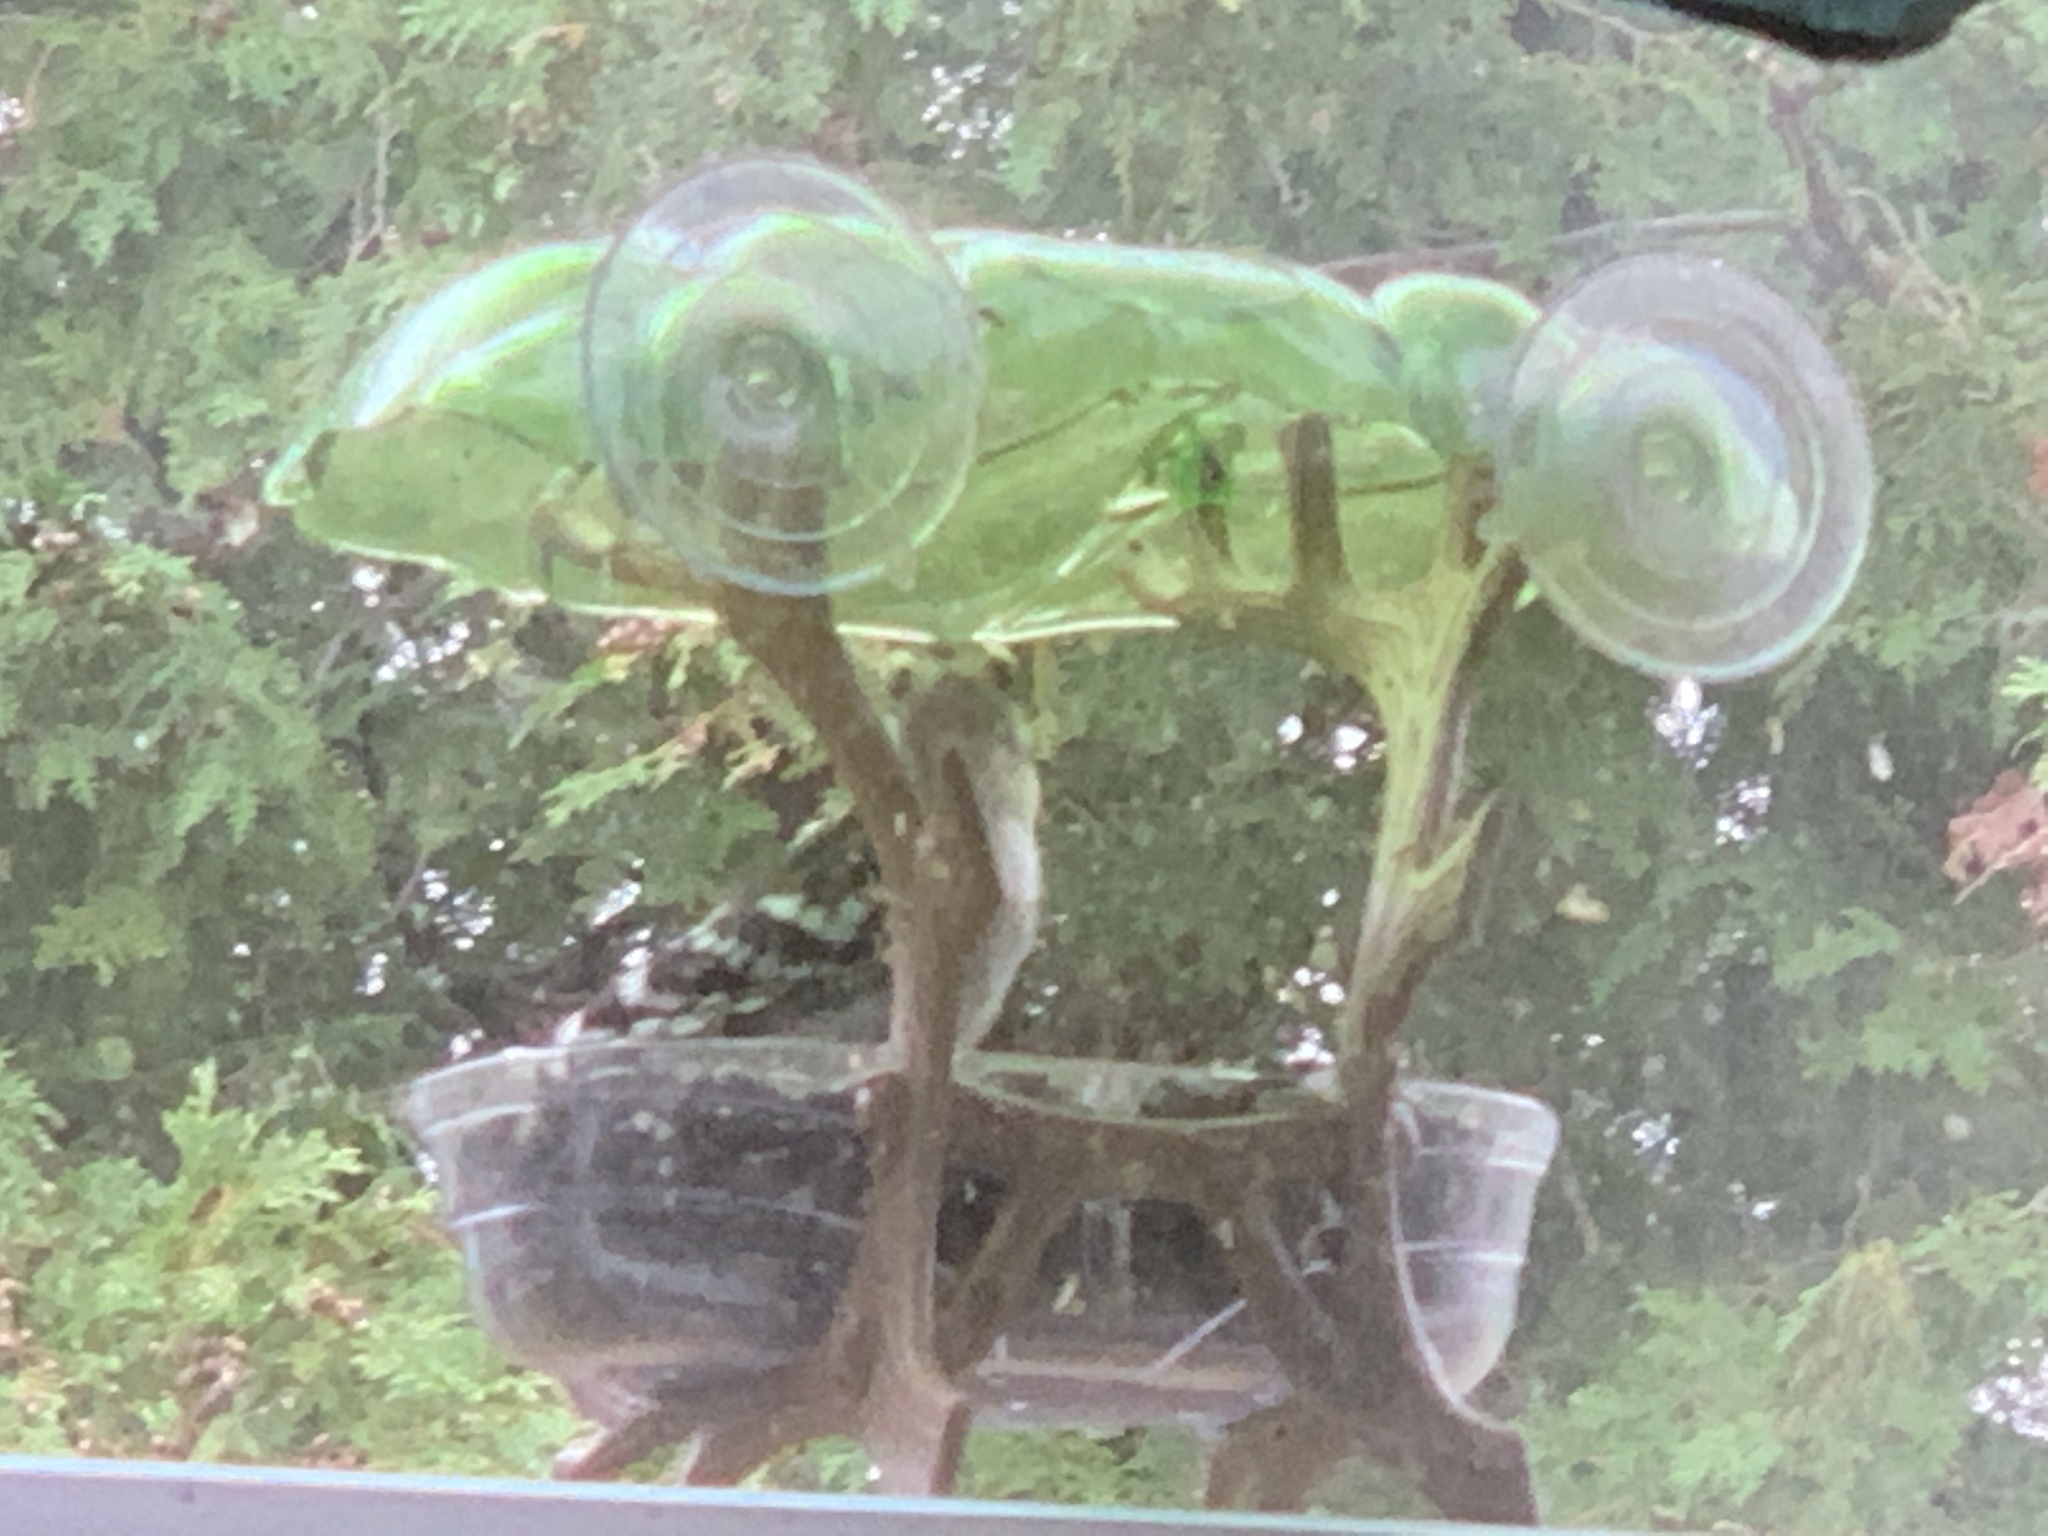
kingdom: Animalia
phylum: Chordata
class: Aves
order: Piciformes
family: Picidae
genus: Dryobates
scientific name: Dryobates pubescens
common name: Downy woodpecker
